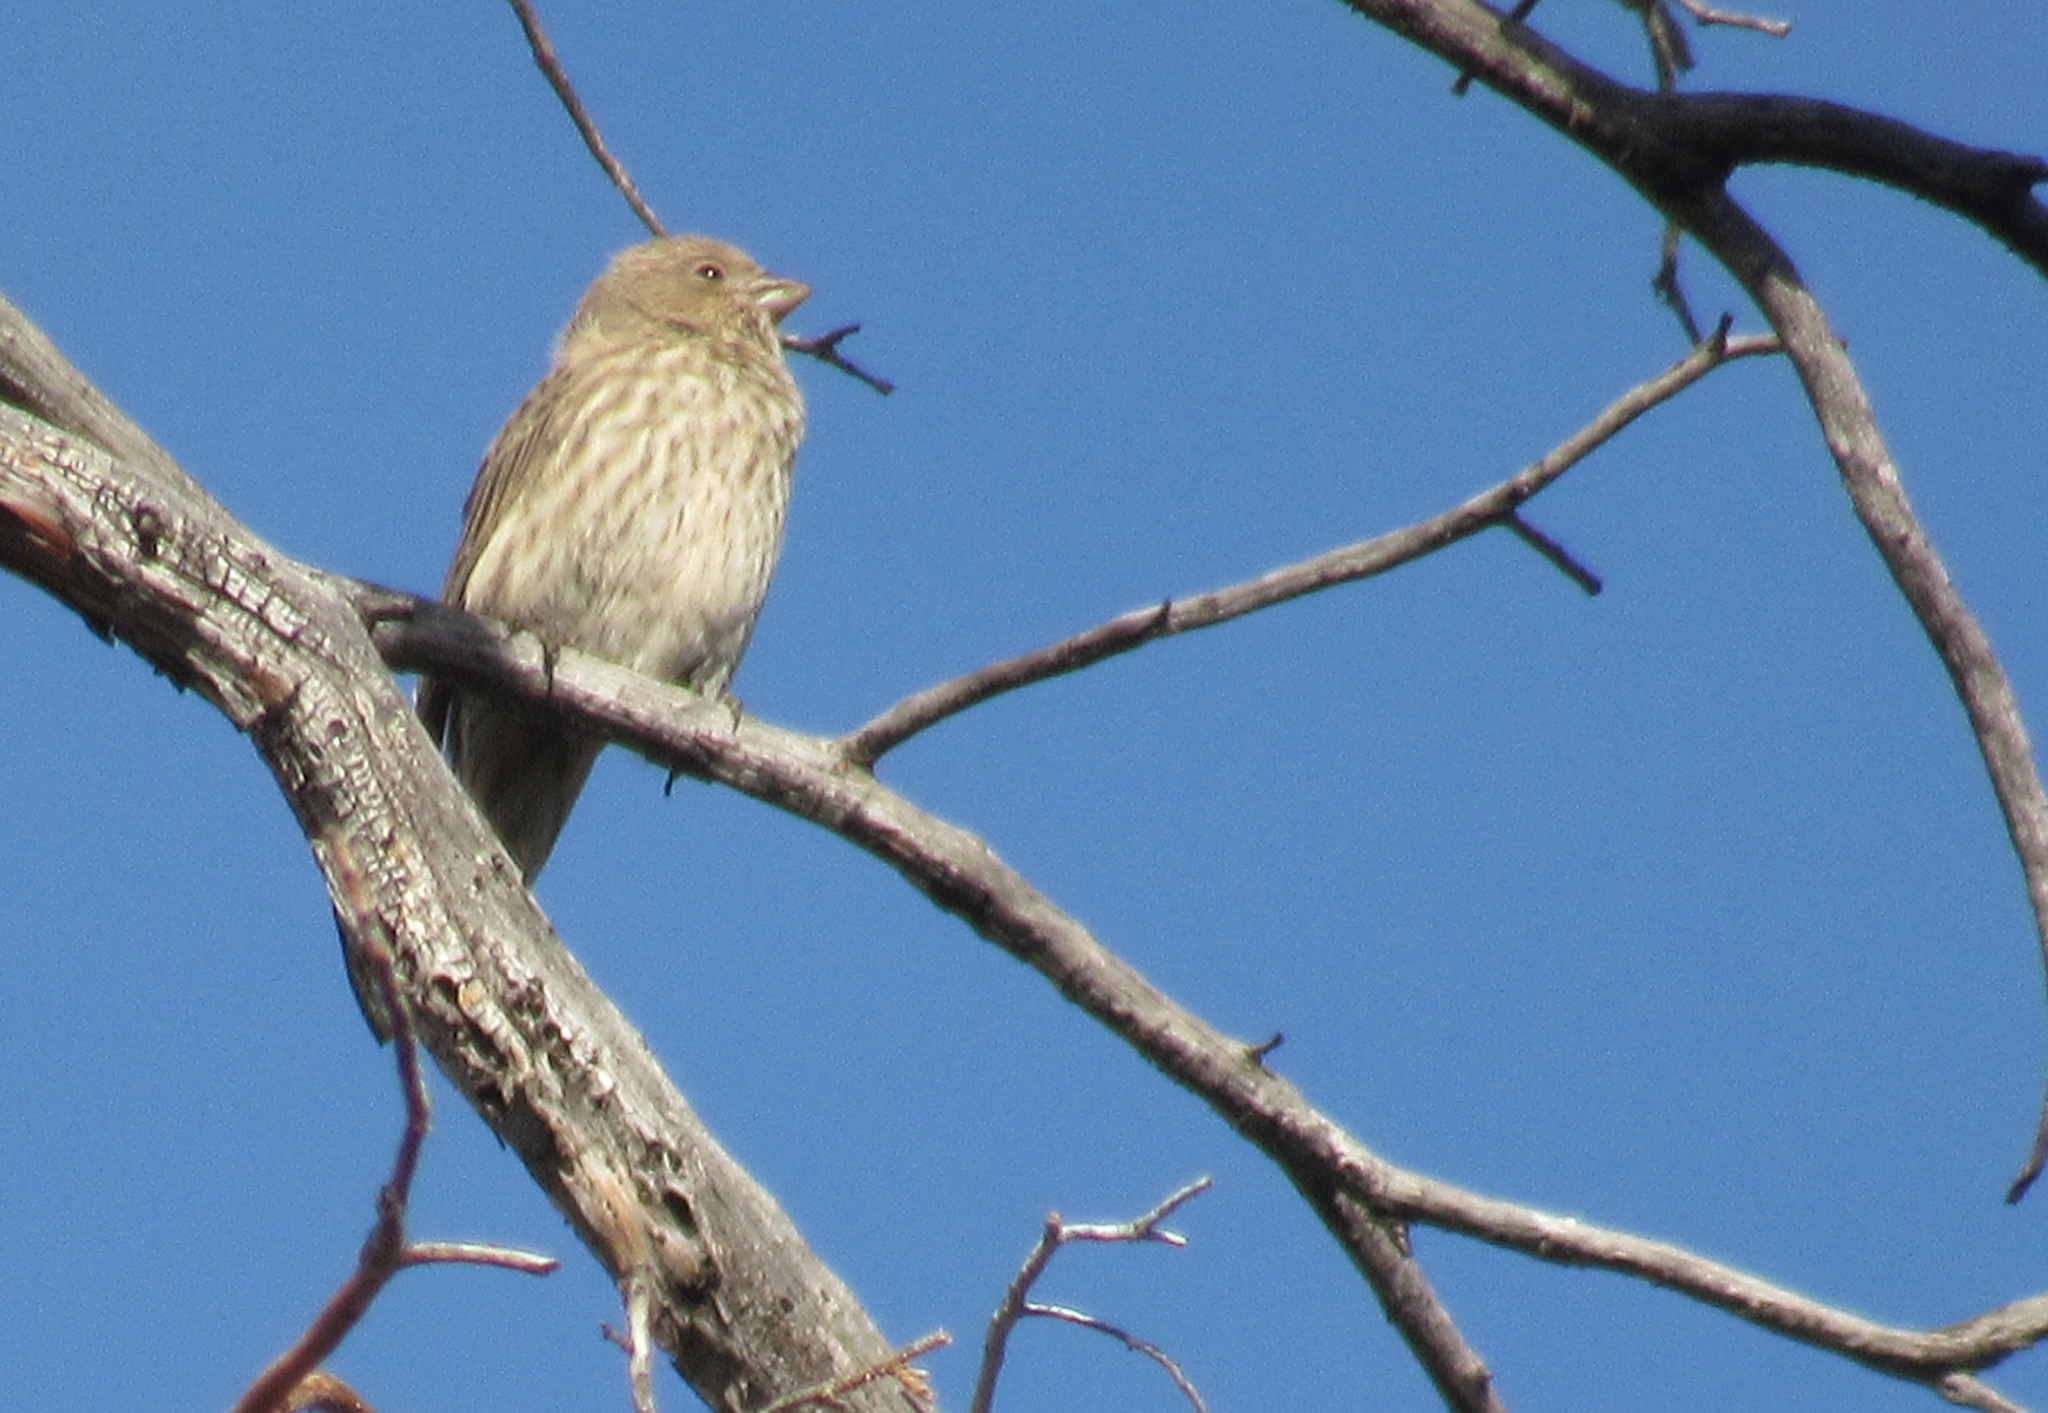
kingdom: Animalia
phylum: Chordata
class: Aves
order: Passeriformes
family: Fringillidae
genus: Haemorhous
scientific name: Haemorhous mexicanus
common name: House finch
